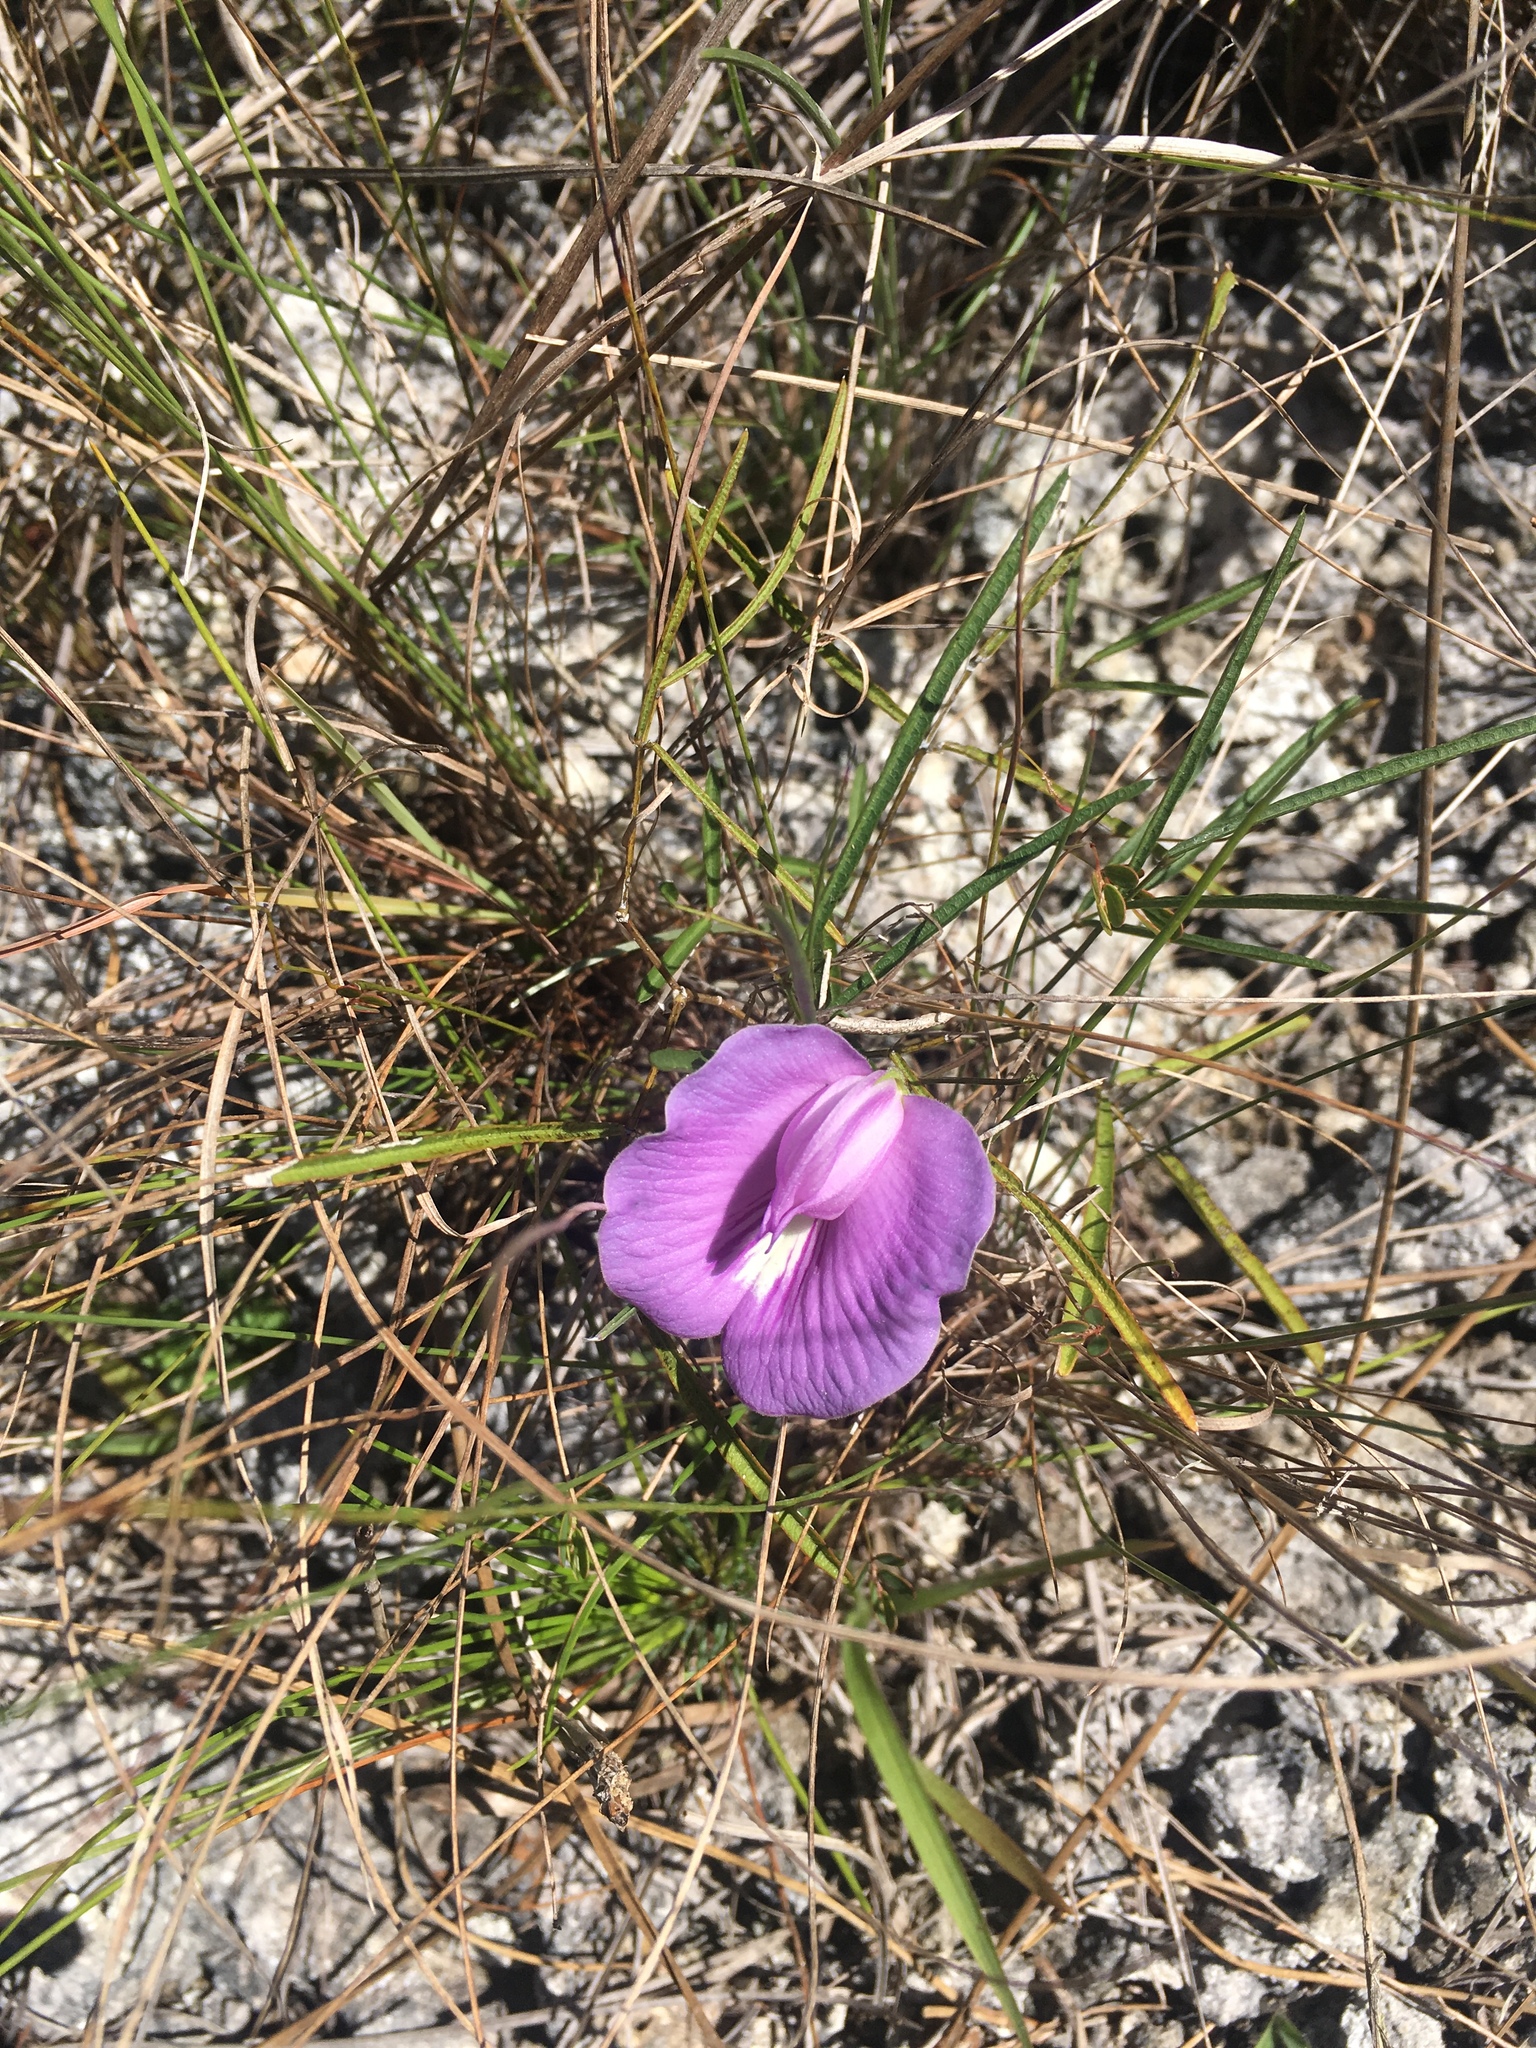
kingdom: Plantae
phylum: Tracheophyta
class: Magnoliopsida
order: Fabales
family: Fabaceae
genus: Centrosema
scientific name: Centrosema virginianum
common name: Butterfly-pea
